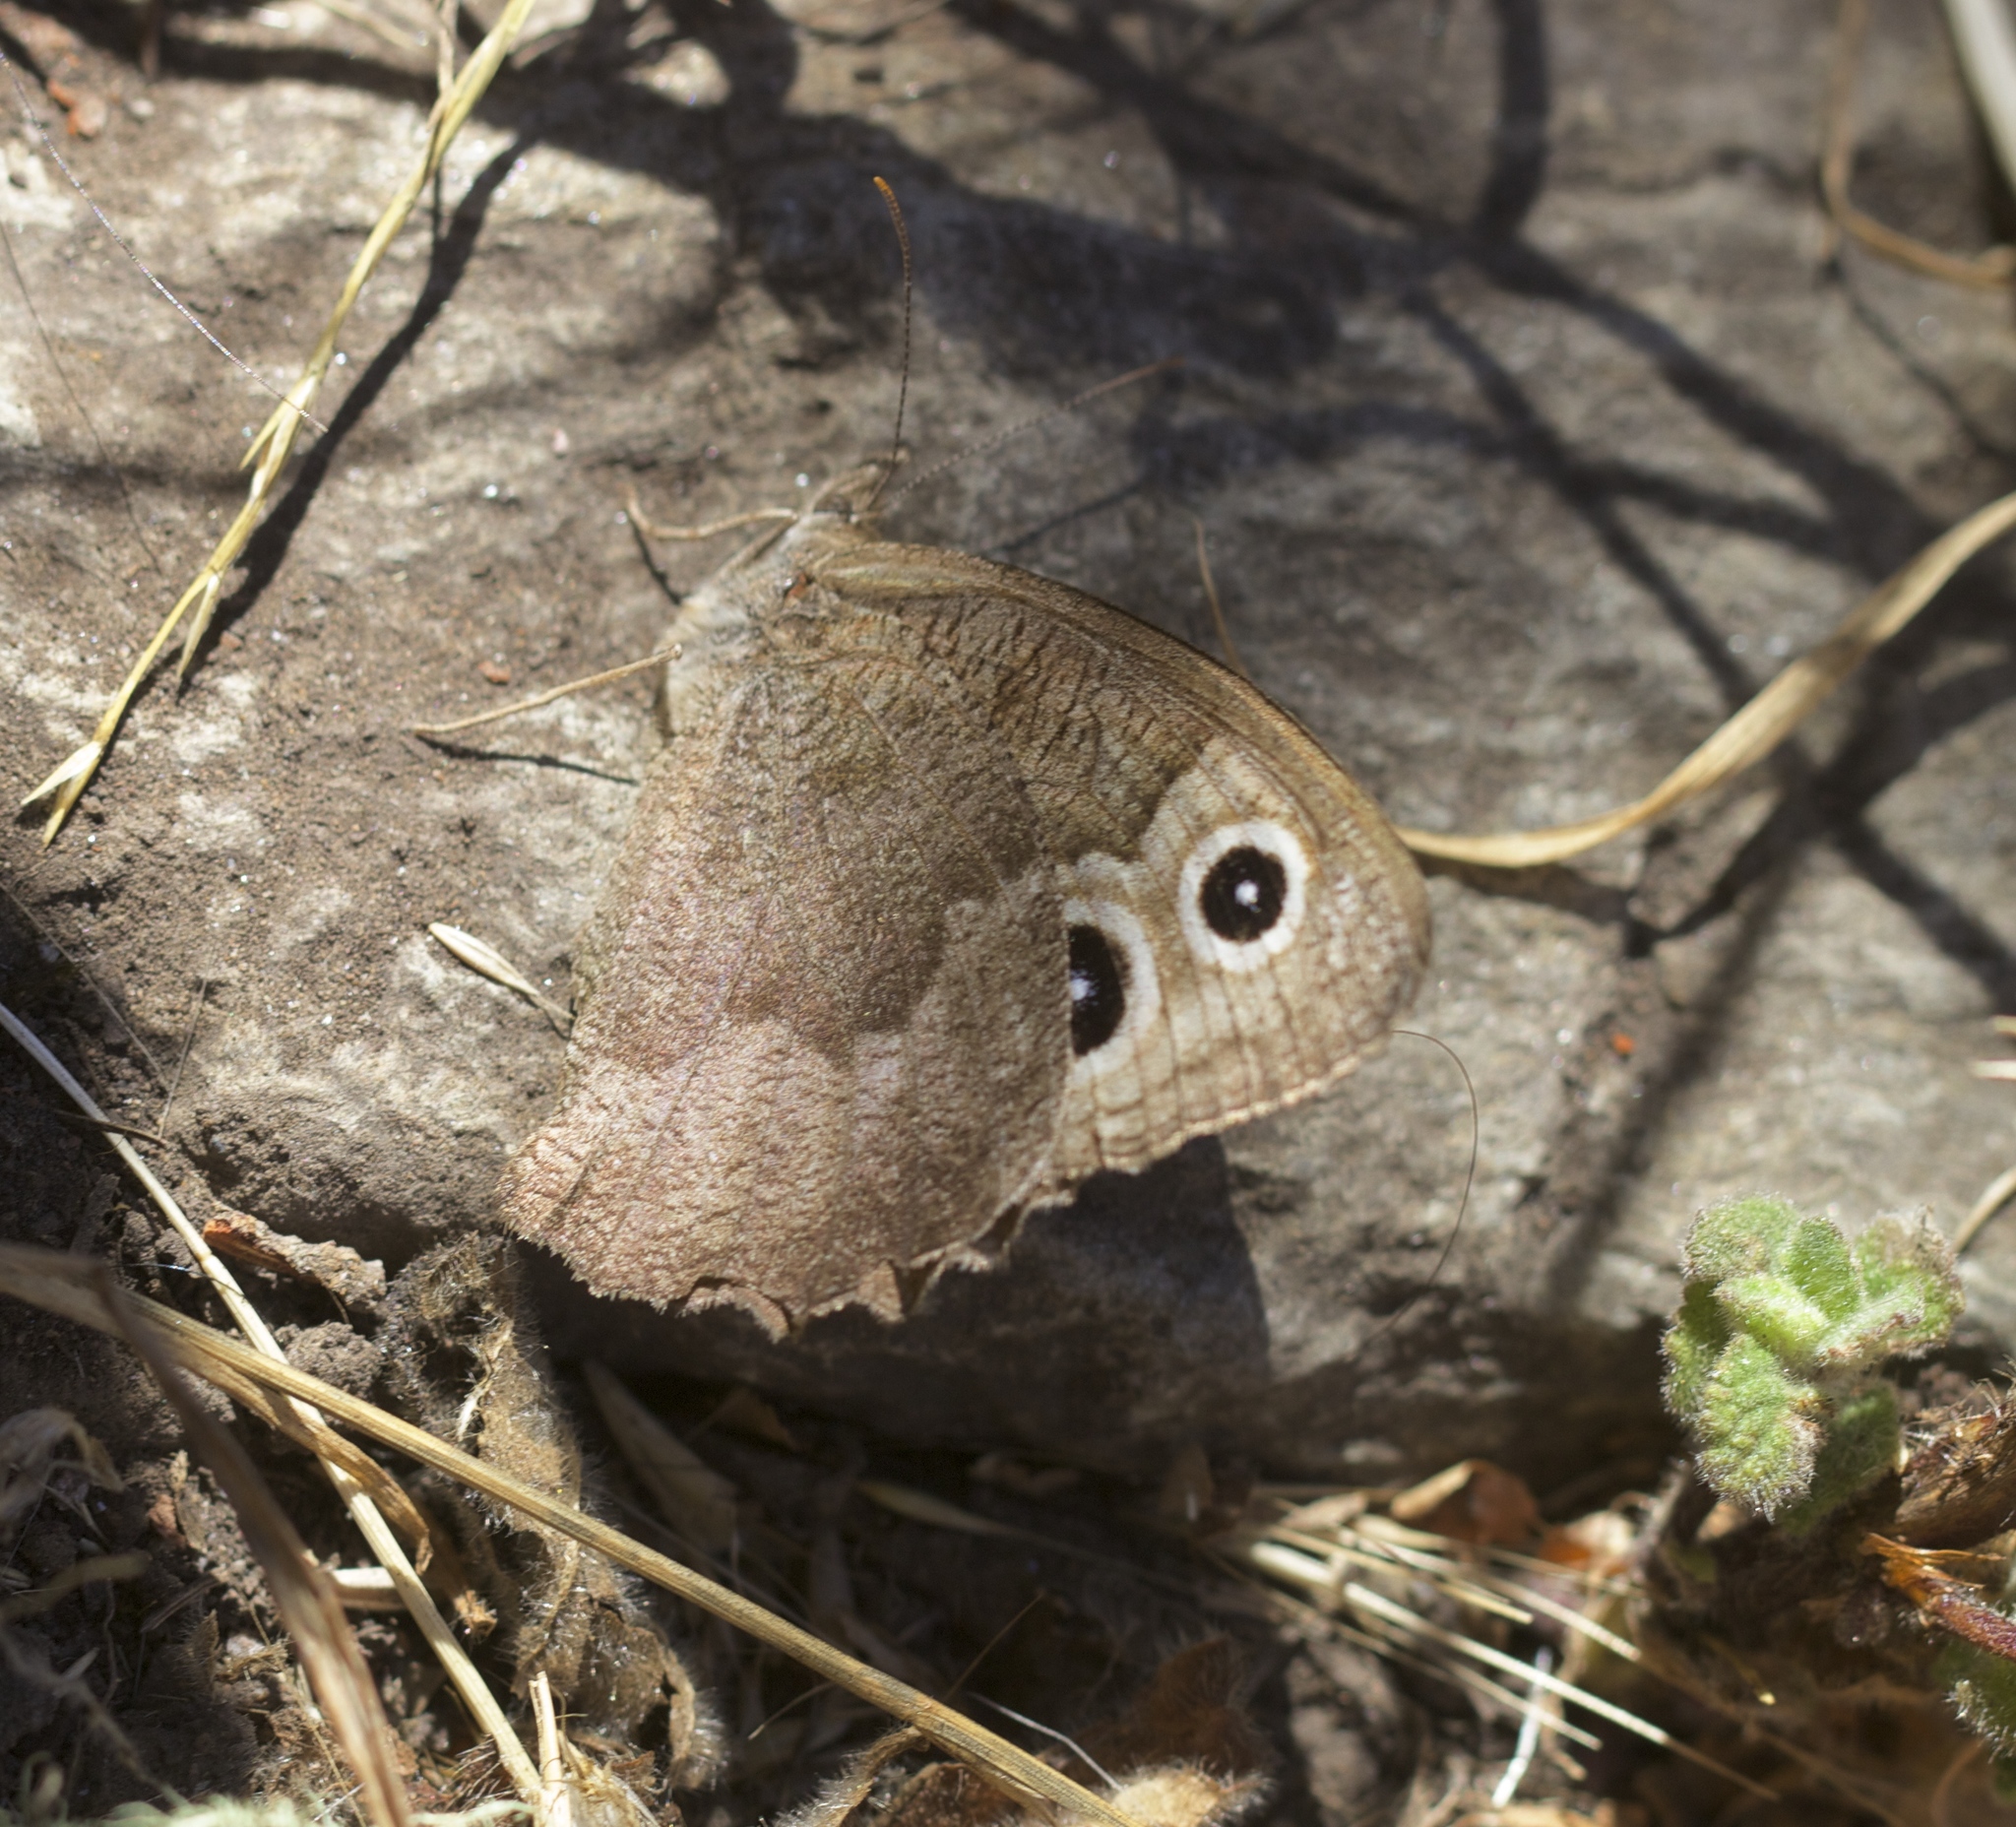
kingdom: Animalia
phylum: Arthropoda
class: Insecta
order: Lepidoptera
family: Nymphalidae
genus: Cercyonis
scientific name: Cercyonis pegala
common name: Common wood-nymph
